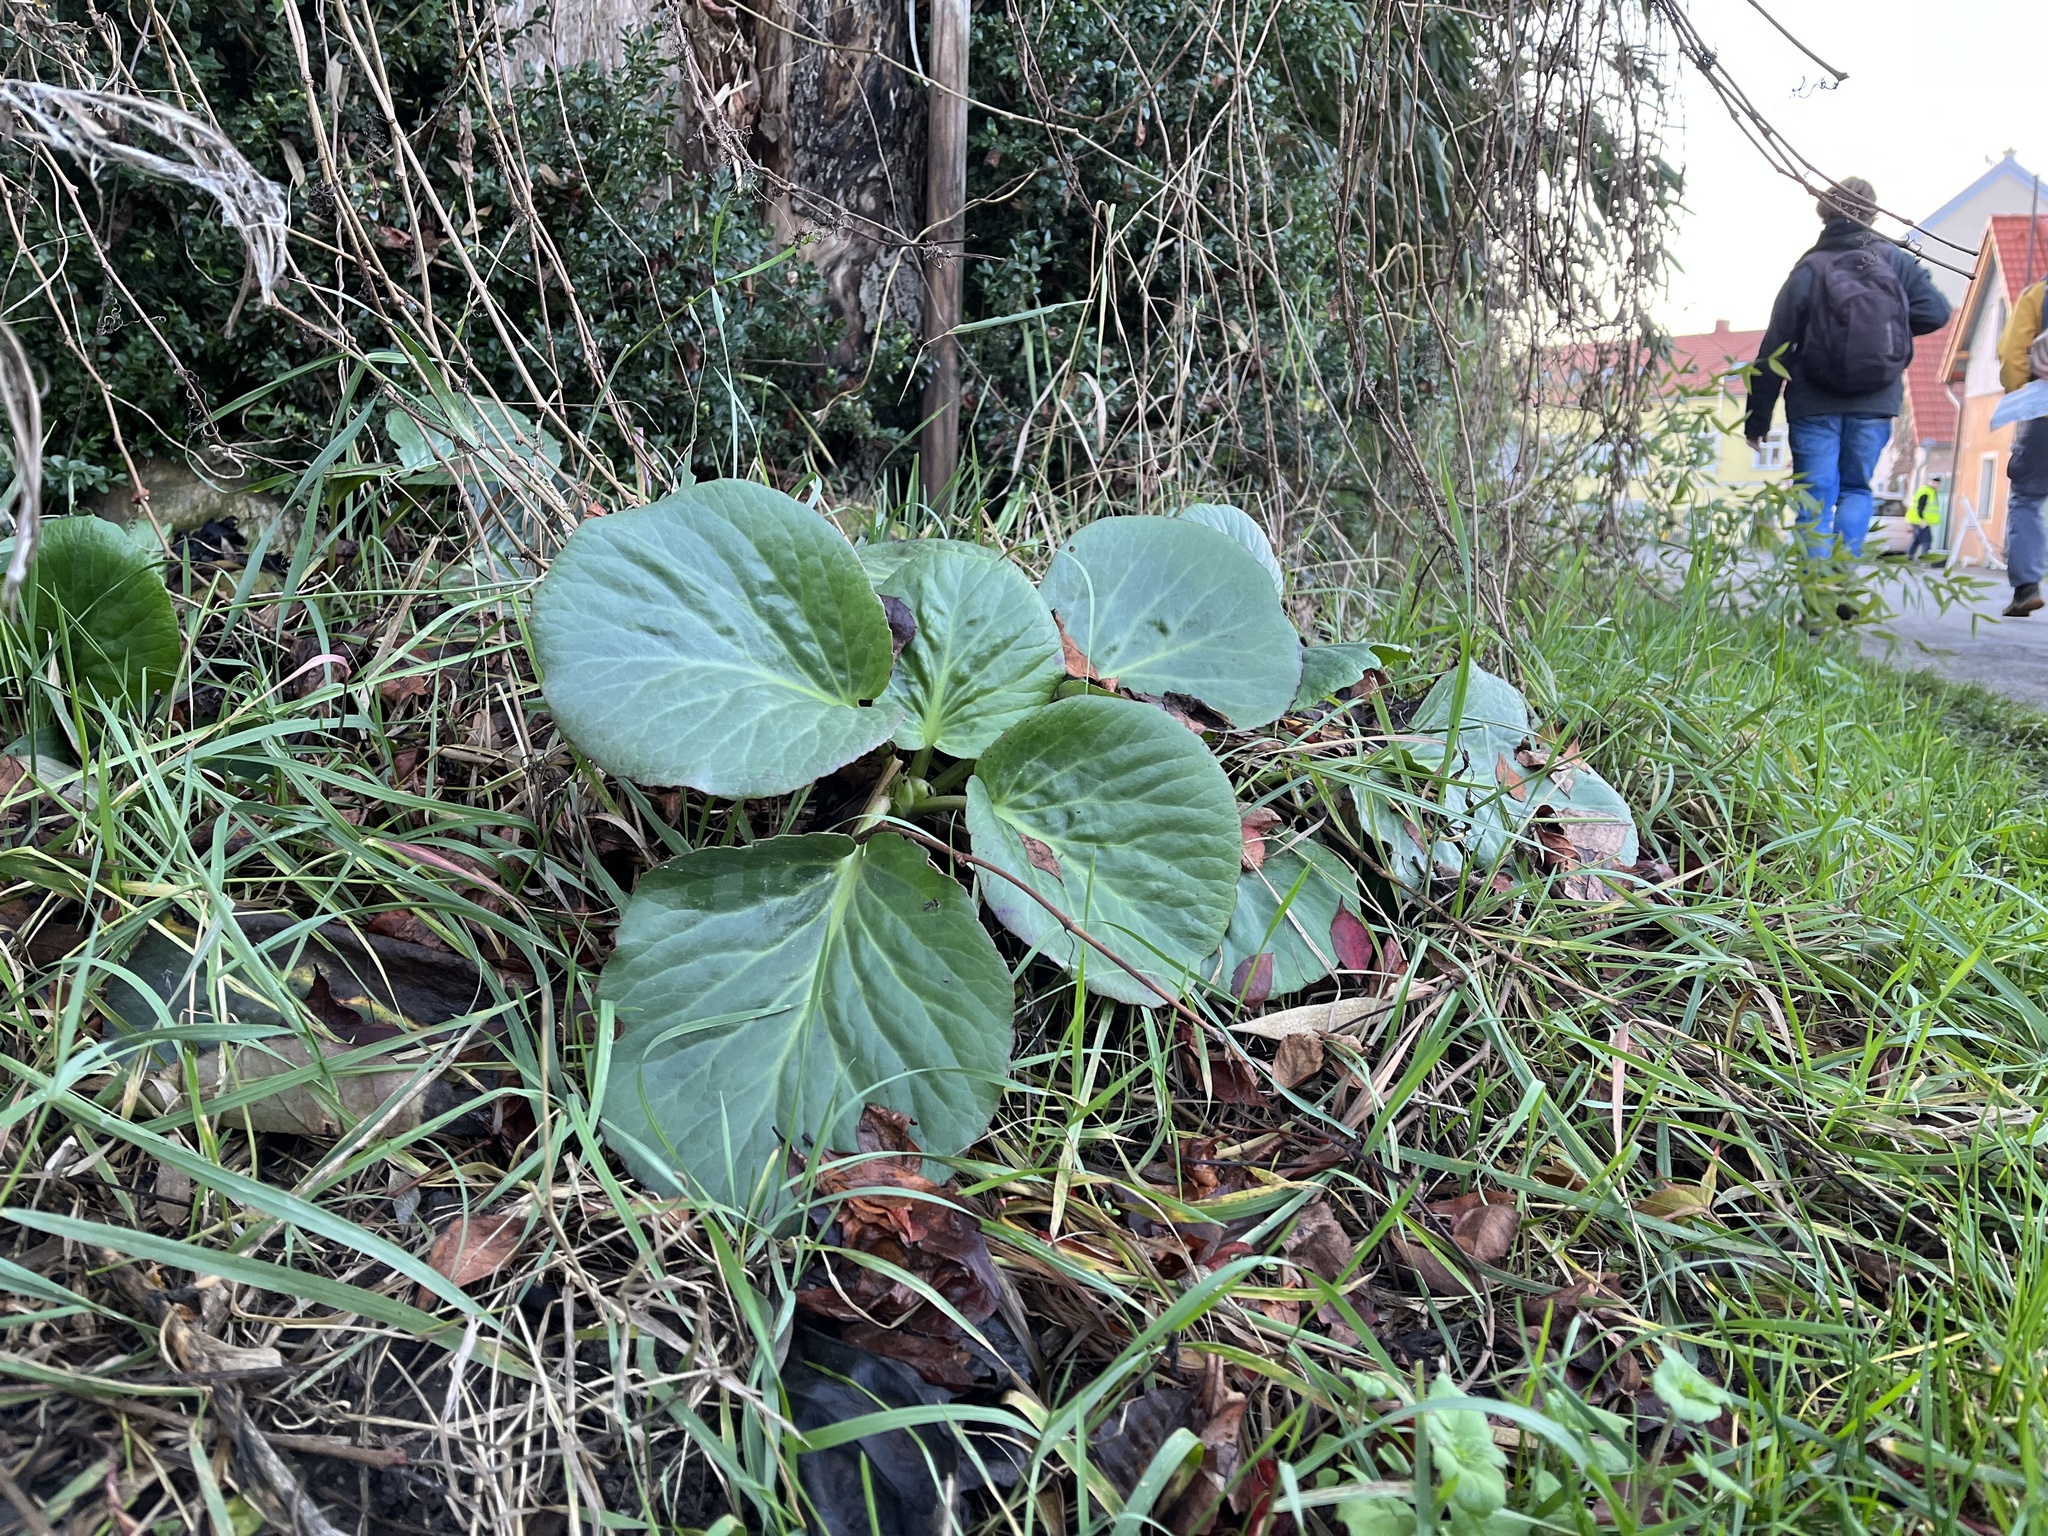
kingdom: Plantae
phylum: Tracheophyta
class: Magnoliopsida
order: Saxifragales
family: Saxifragaceae
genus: Bergenia
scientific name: Bergenia crassifolia
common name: Elephant-ears
